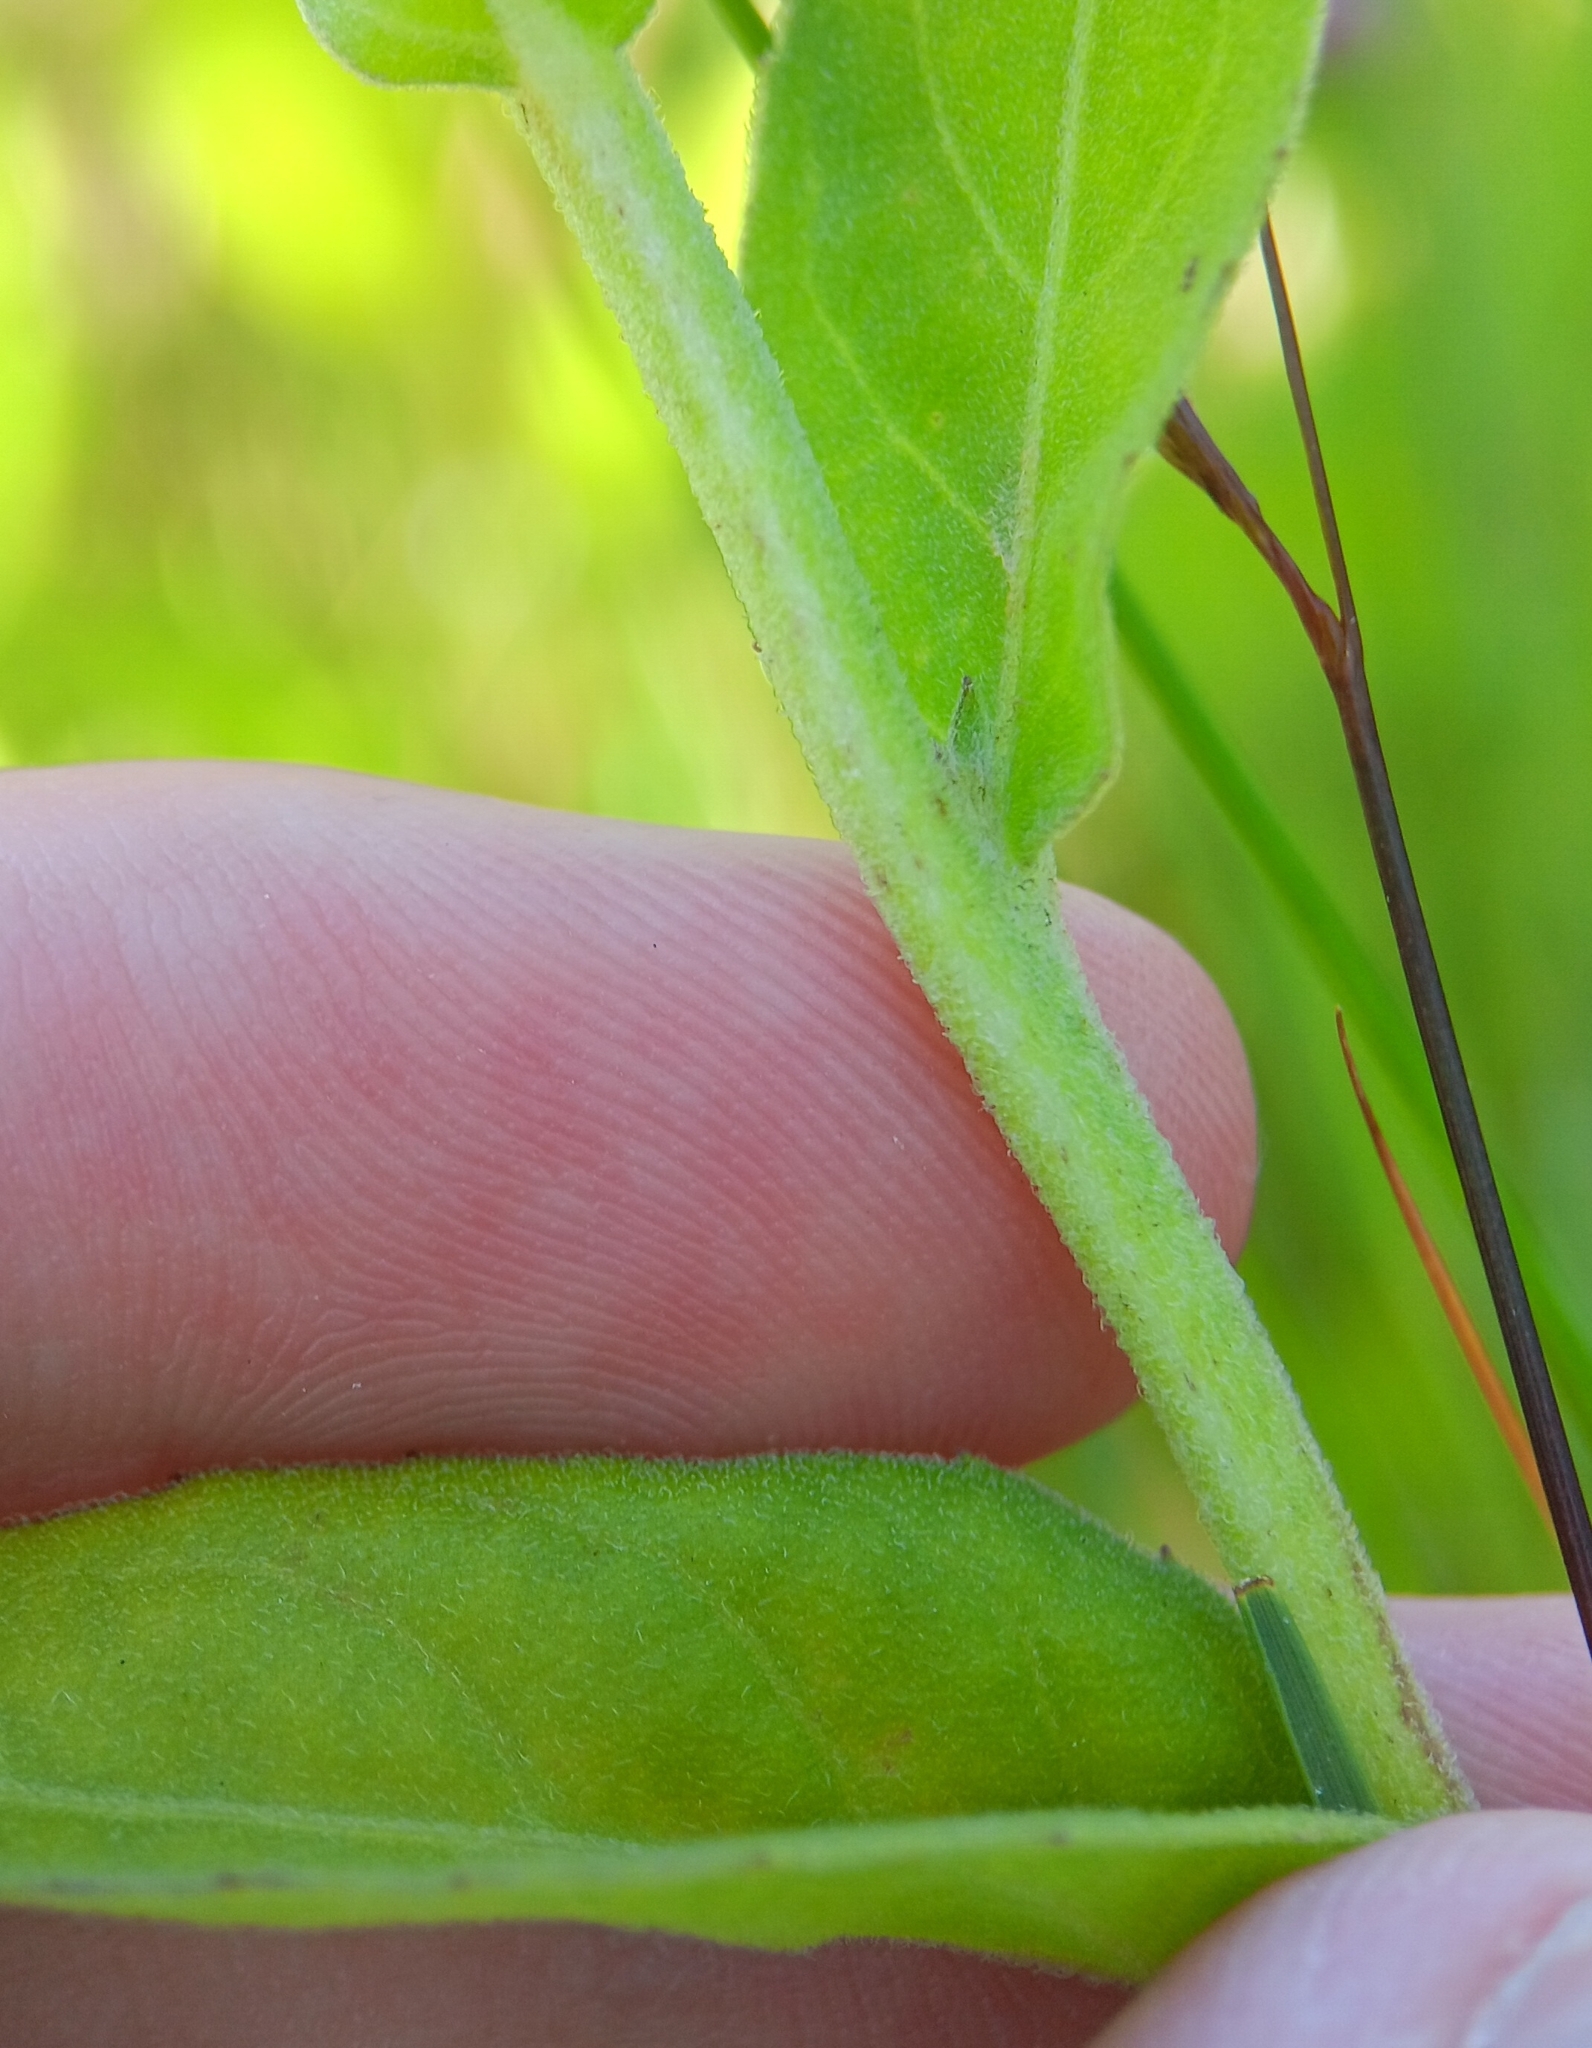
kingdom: Plantae
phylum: Tracheophyta
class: Magnoliopsida
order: Asterales
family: Asteraceae
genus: Pluchea
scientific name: Pluchea odorata
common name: Saltmarsh fleabane
